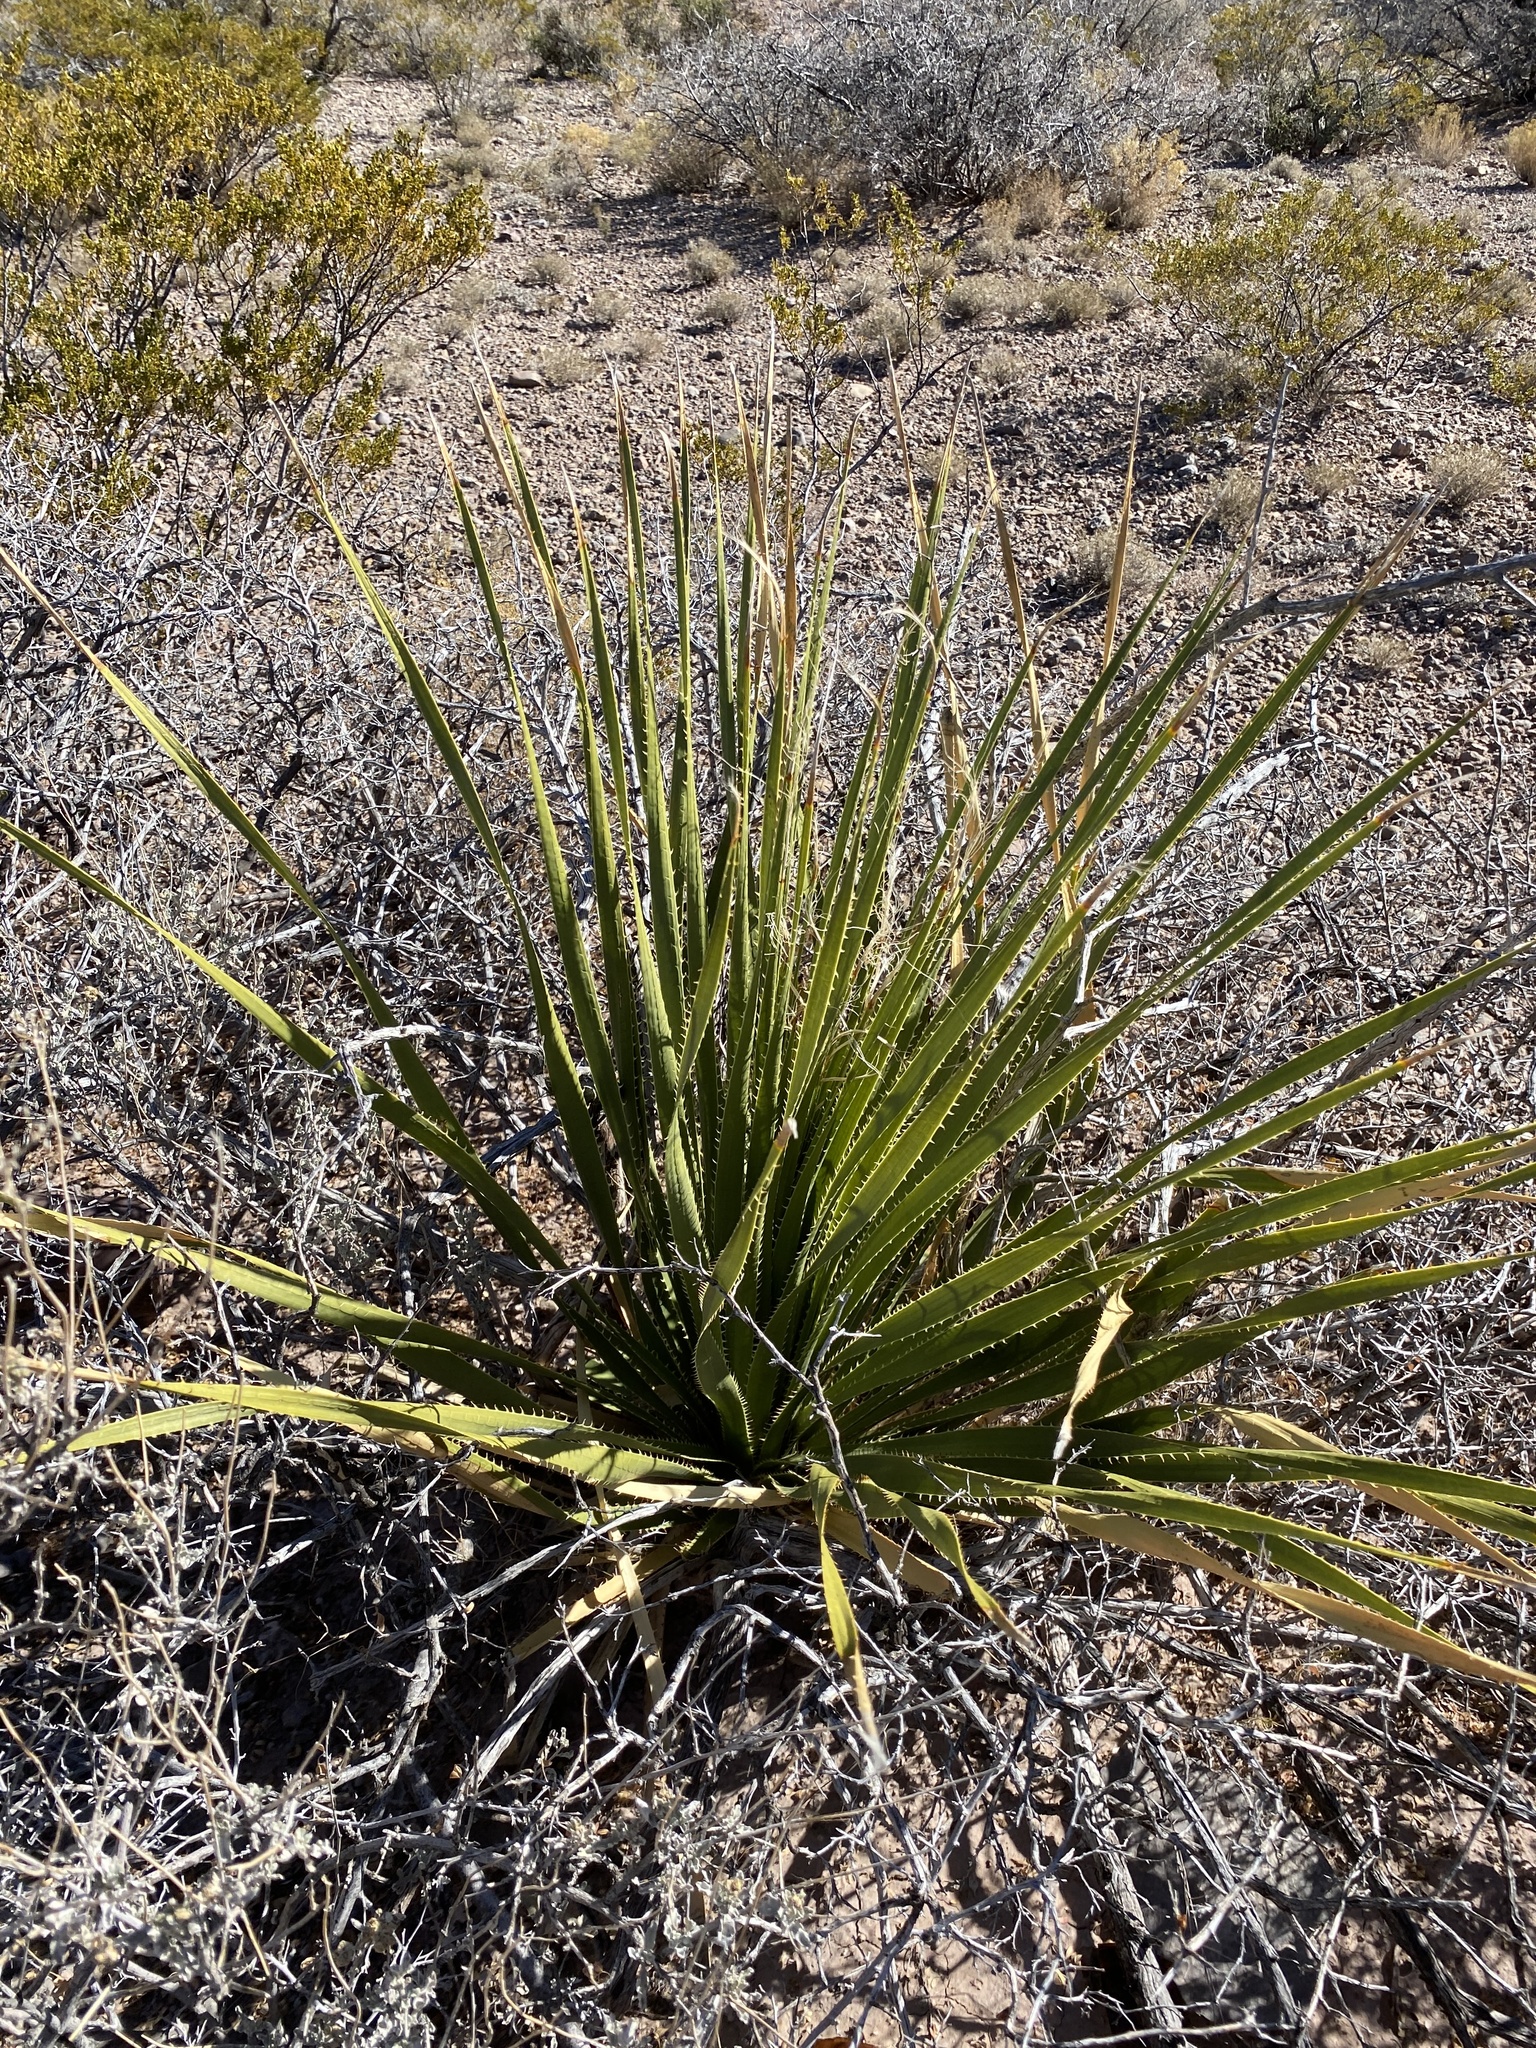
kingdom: Plantae
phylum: Tracheophyta
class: Liliopsida
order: Asparagales
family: Asparagaceae
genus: Dasylirion
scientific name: Dasylirion wheeleri
